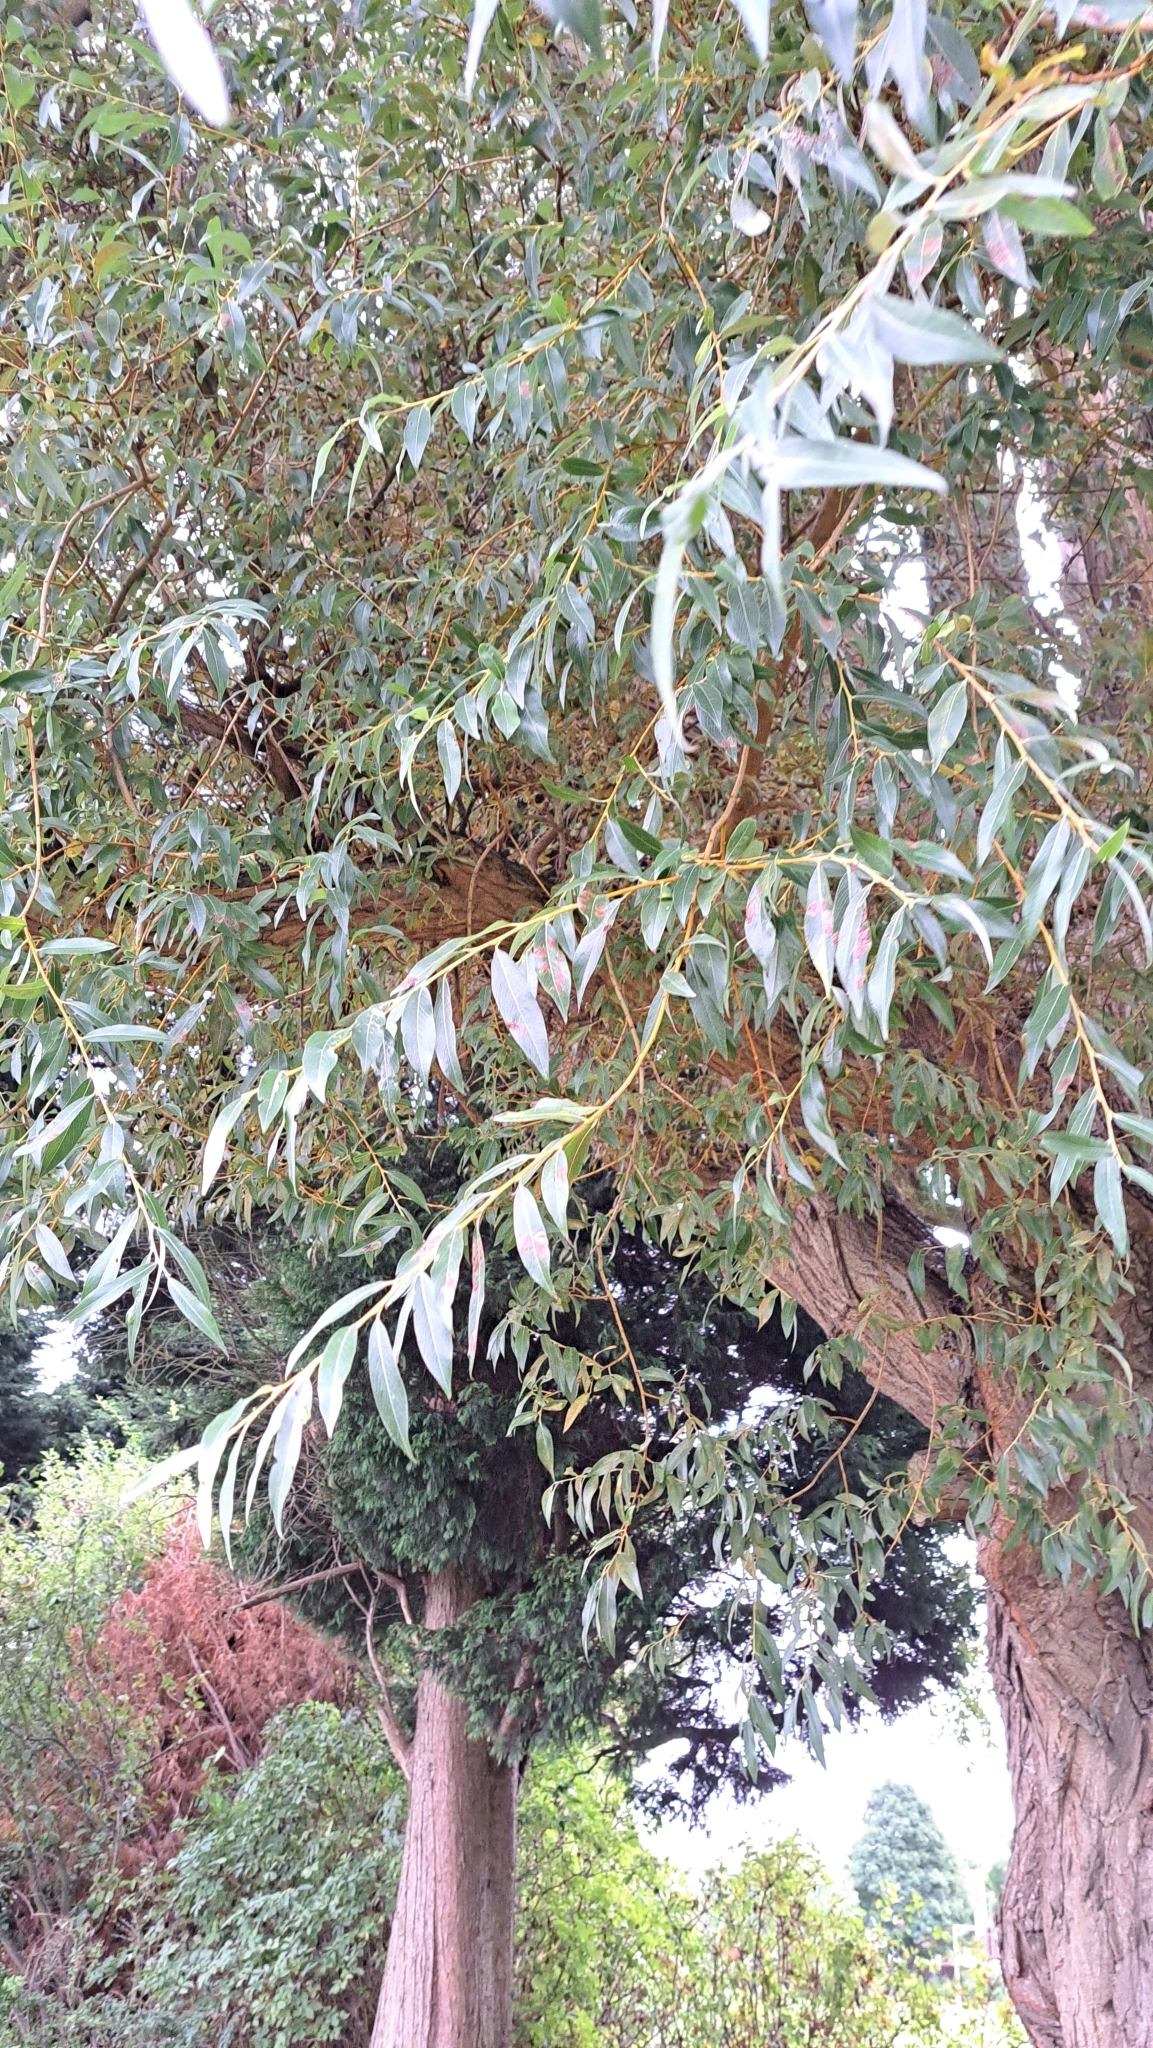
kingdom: Plantae
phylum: Tracheophyta
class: Magnoliopsida
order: Malpighiales
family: Salicaceae
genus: Salix
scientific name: Salix alba
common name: White willow
